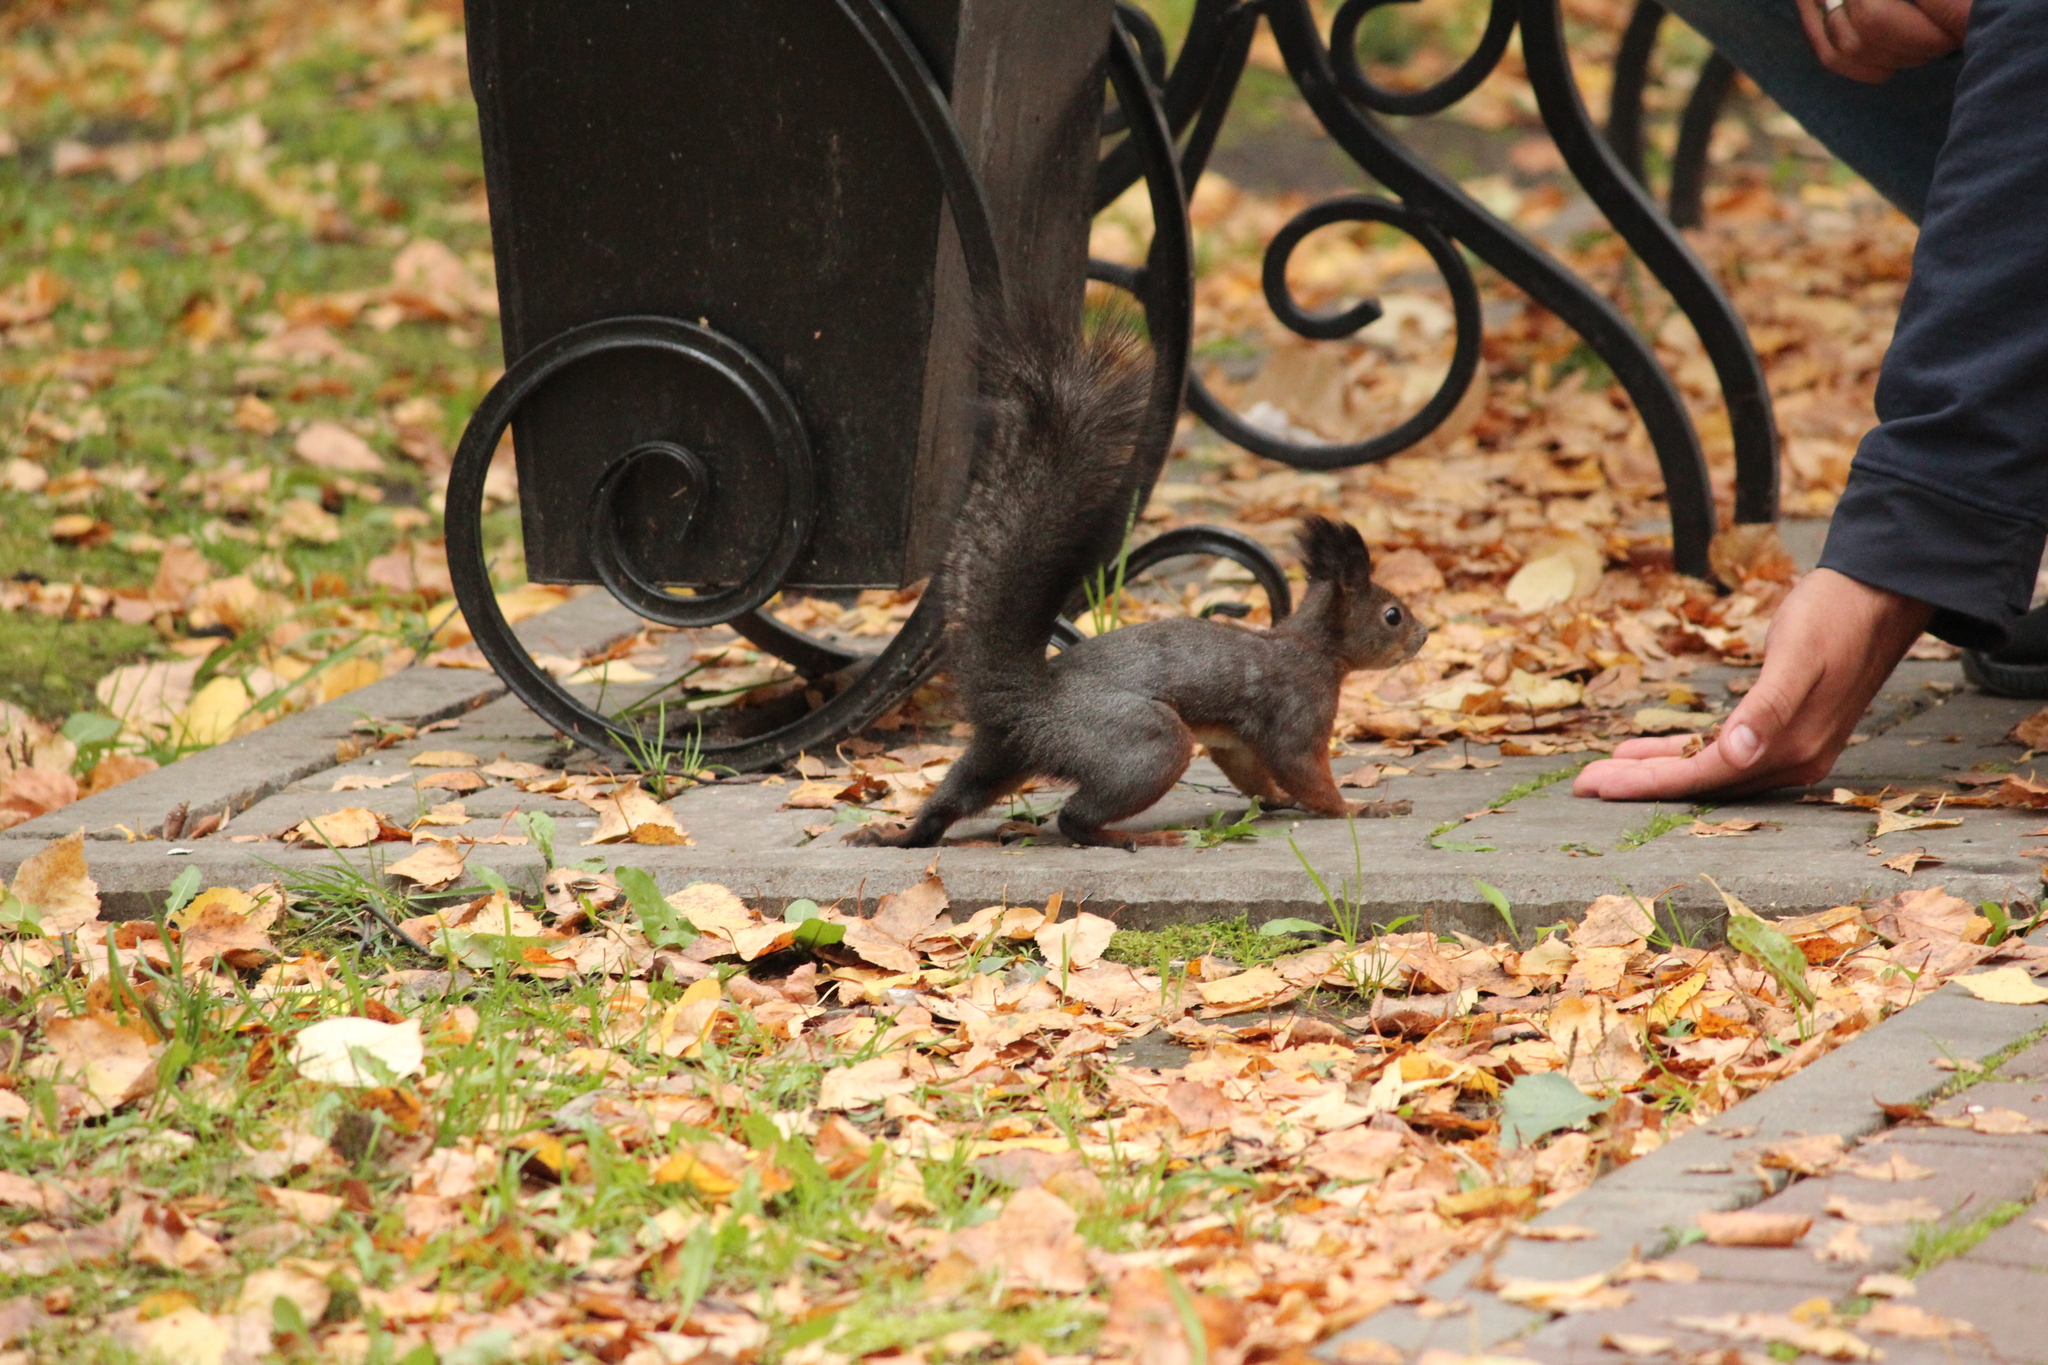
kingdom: Animalia
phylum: Chordata
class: Mammalia
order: Rodentia
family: Sciuridae
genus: Sciurus
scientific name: Sciurus vulgaris
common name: Eurasian red squirrel
